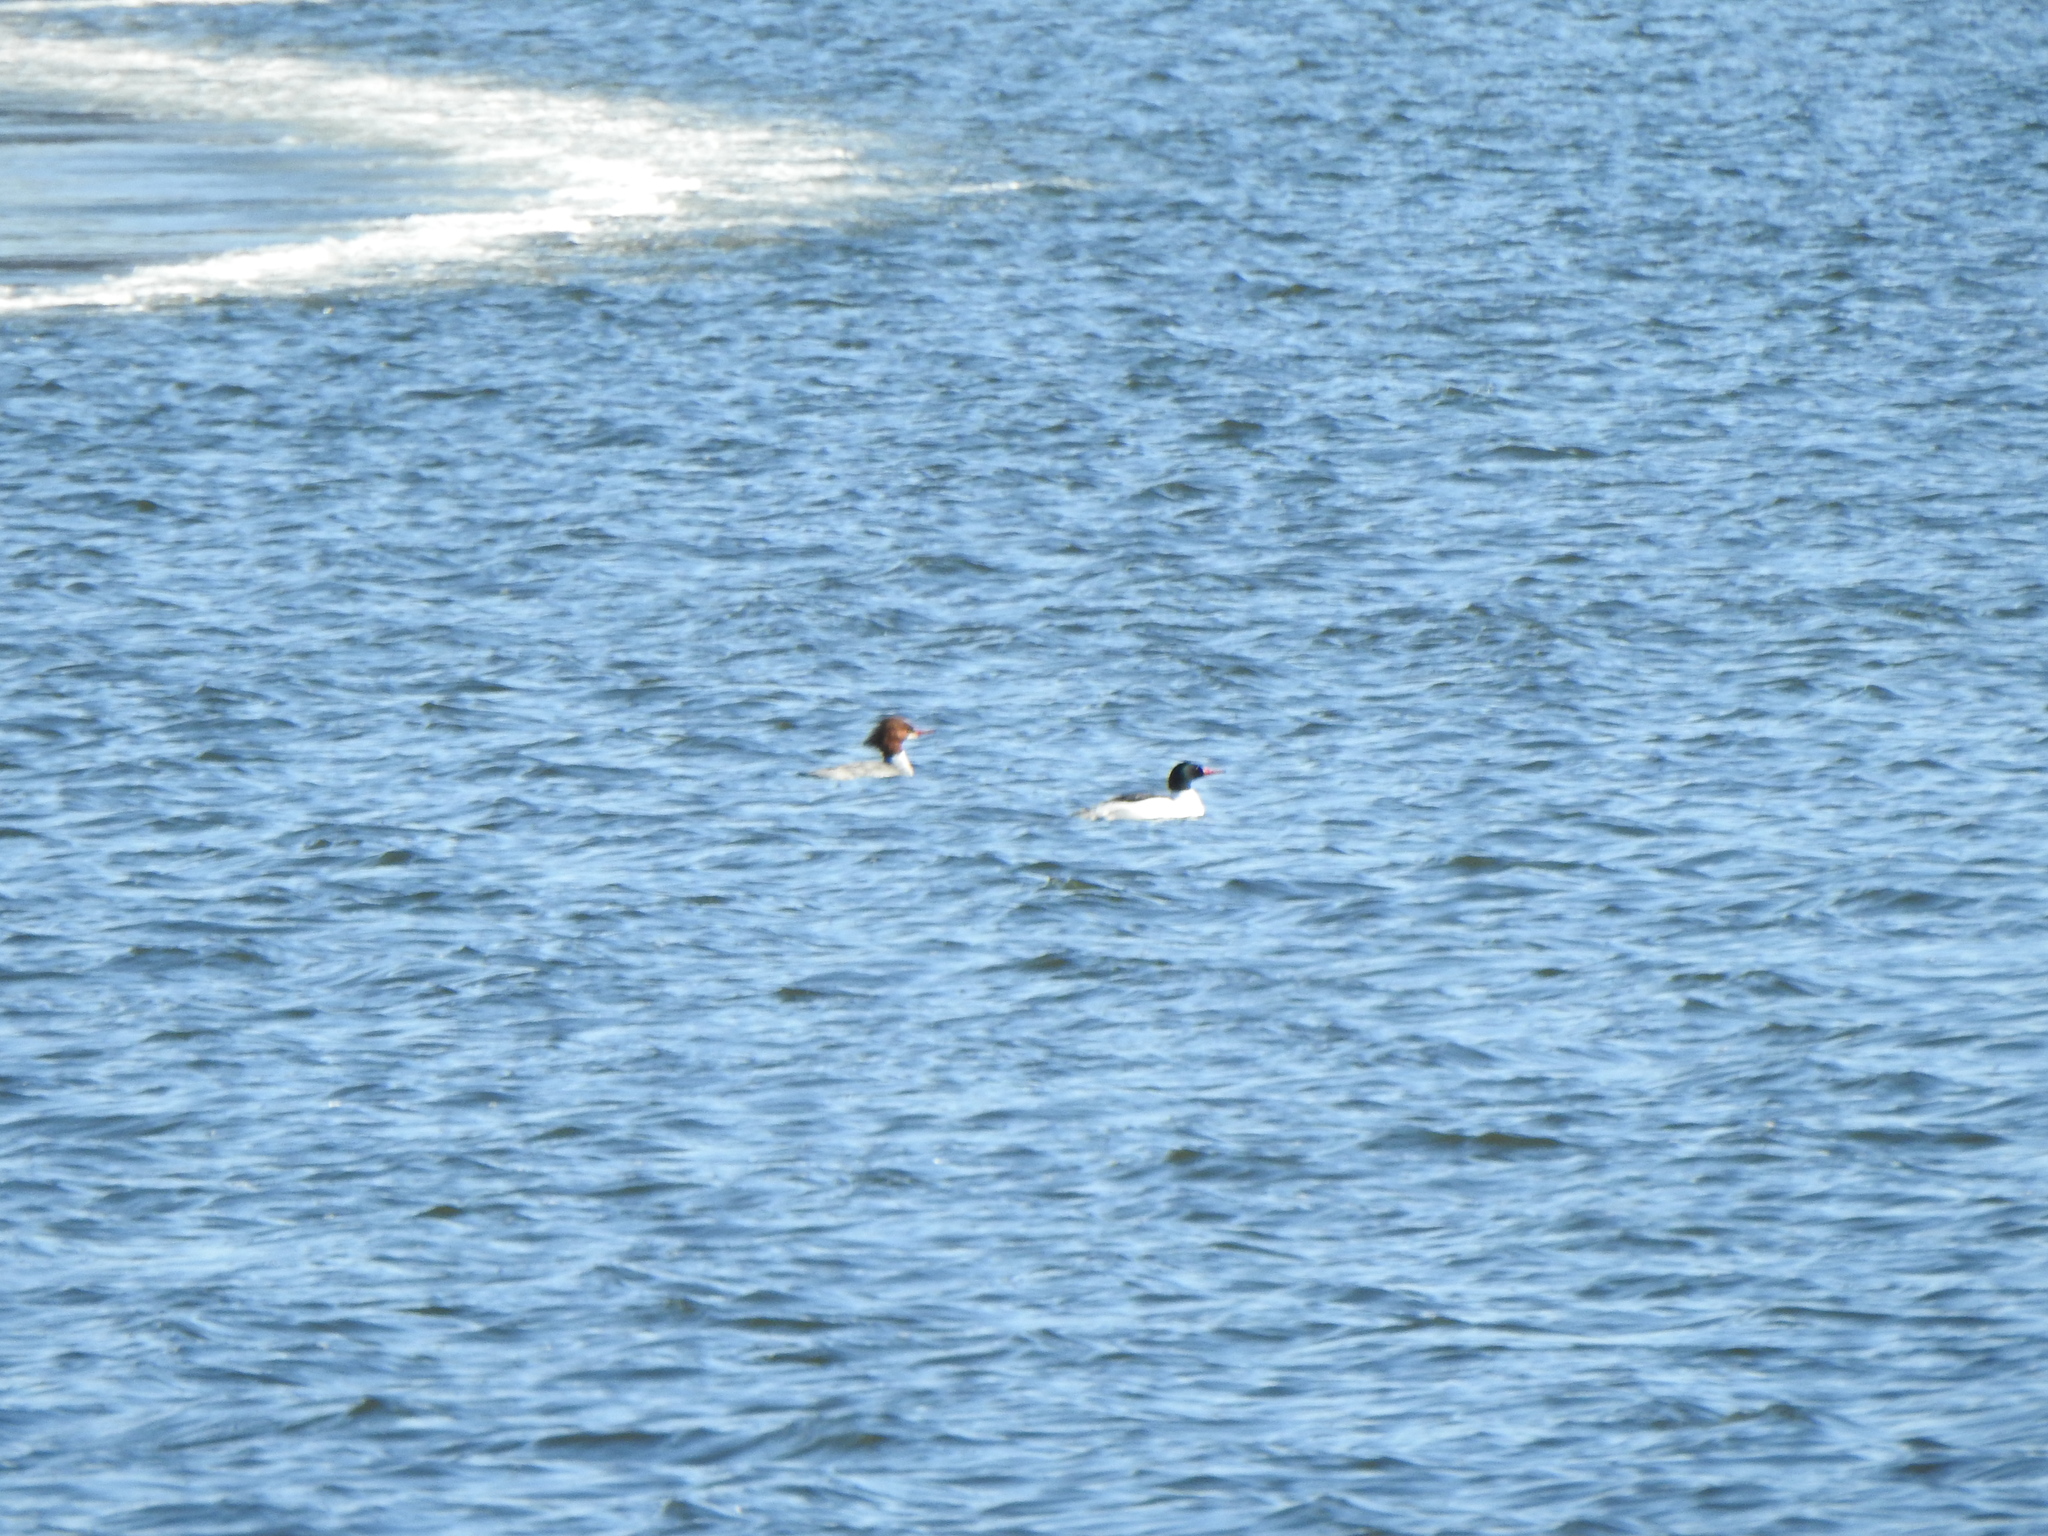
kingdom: Animalia
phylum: Chordata
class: Aves
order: Anseriformes
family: Anatidae
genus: Mergus
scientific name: Mergus merganser
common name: Common merganser
